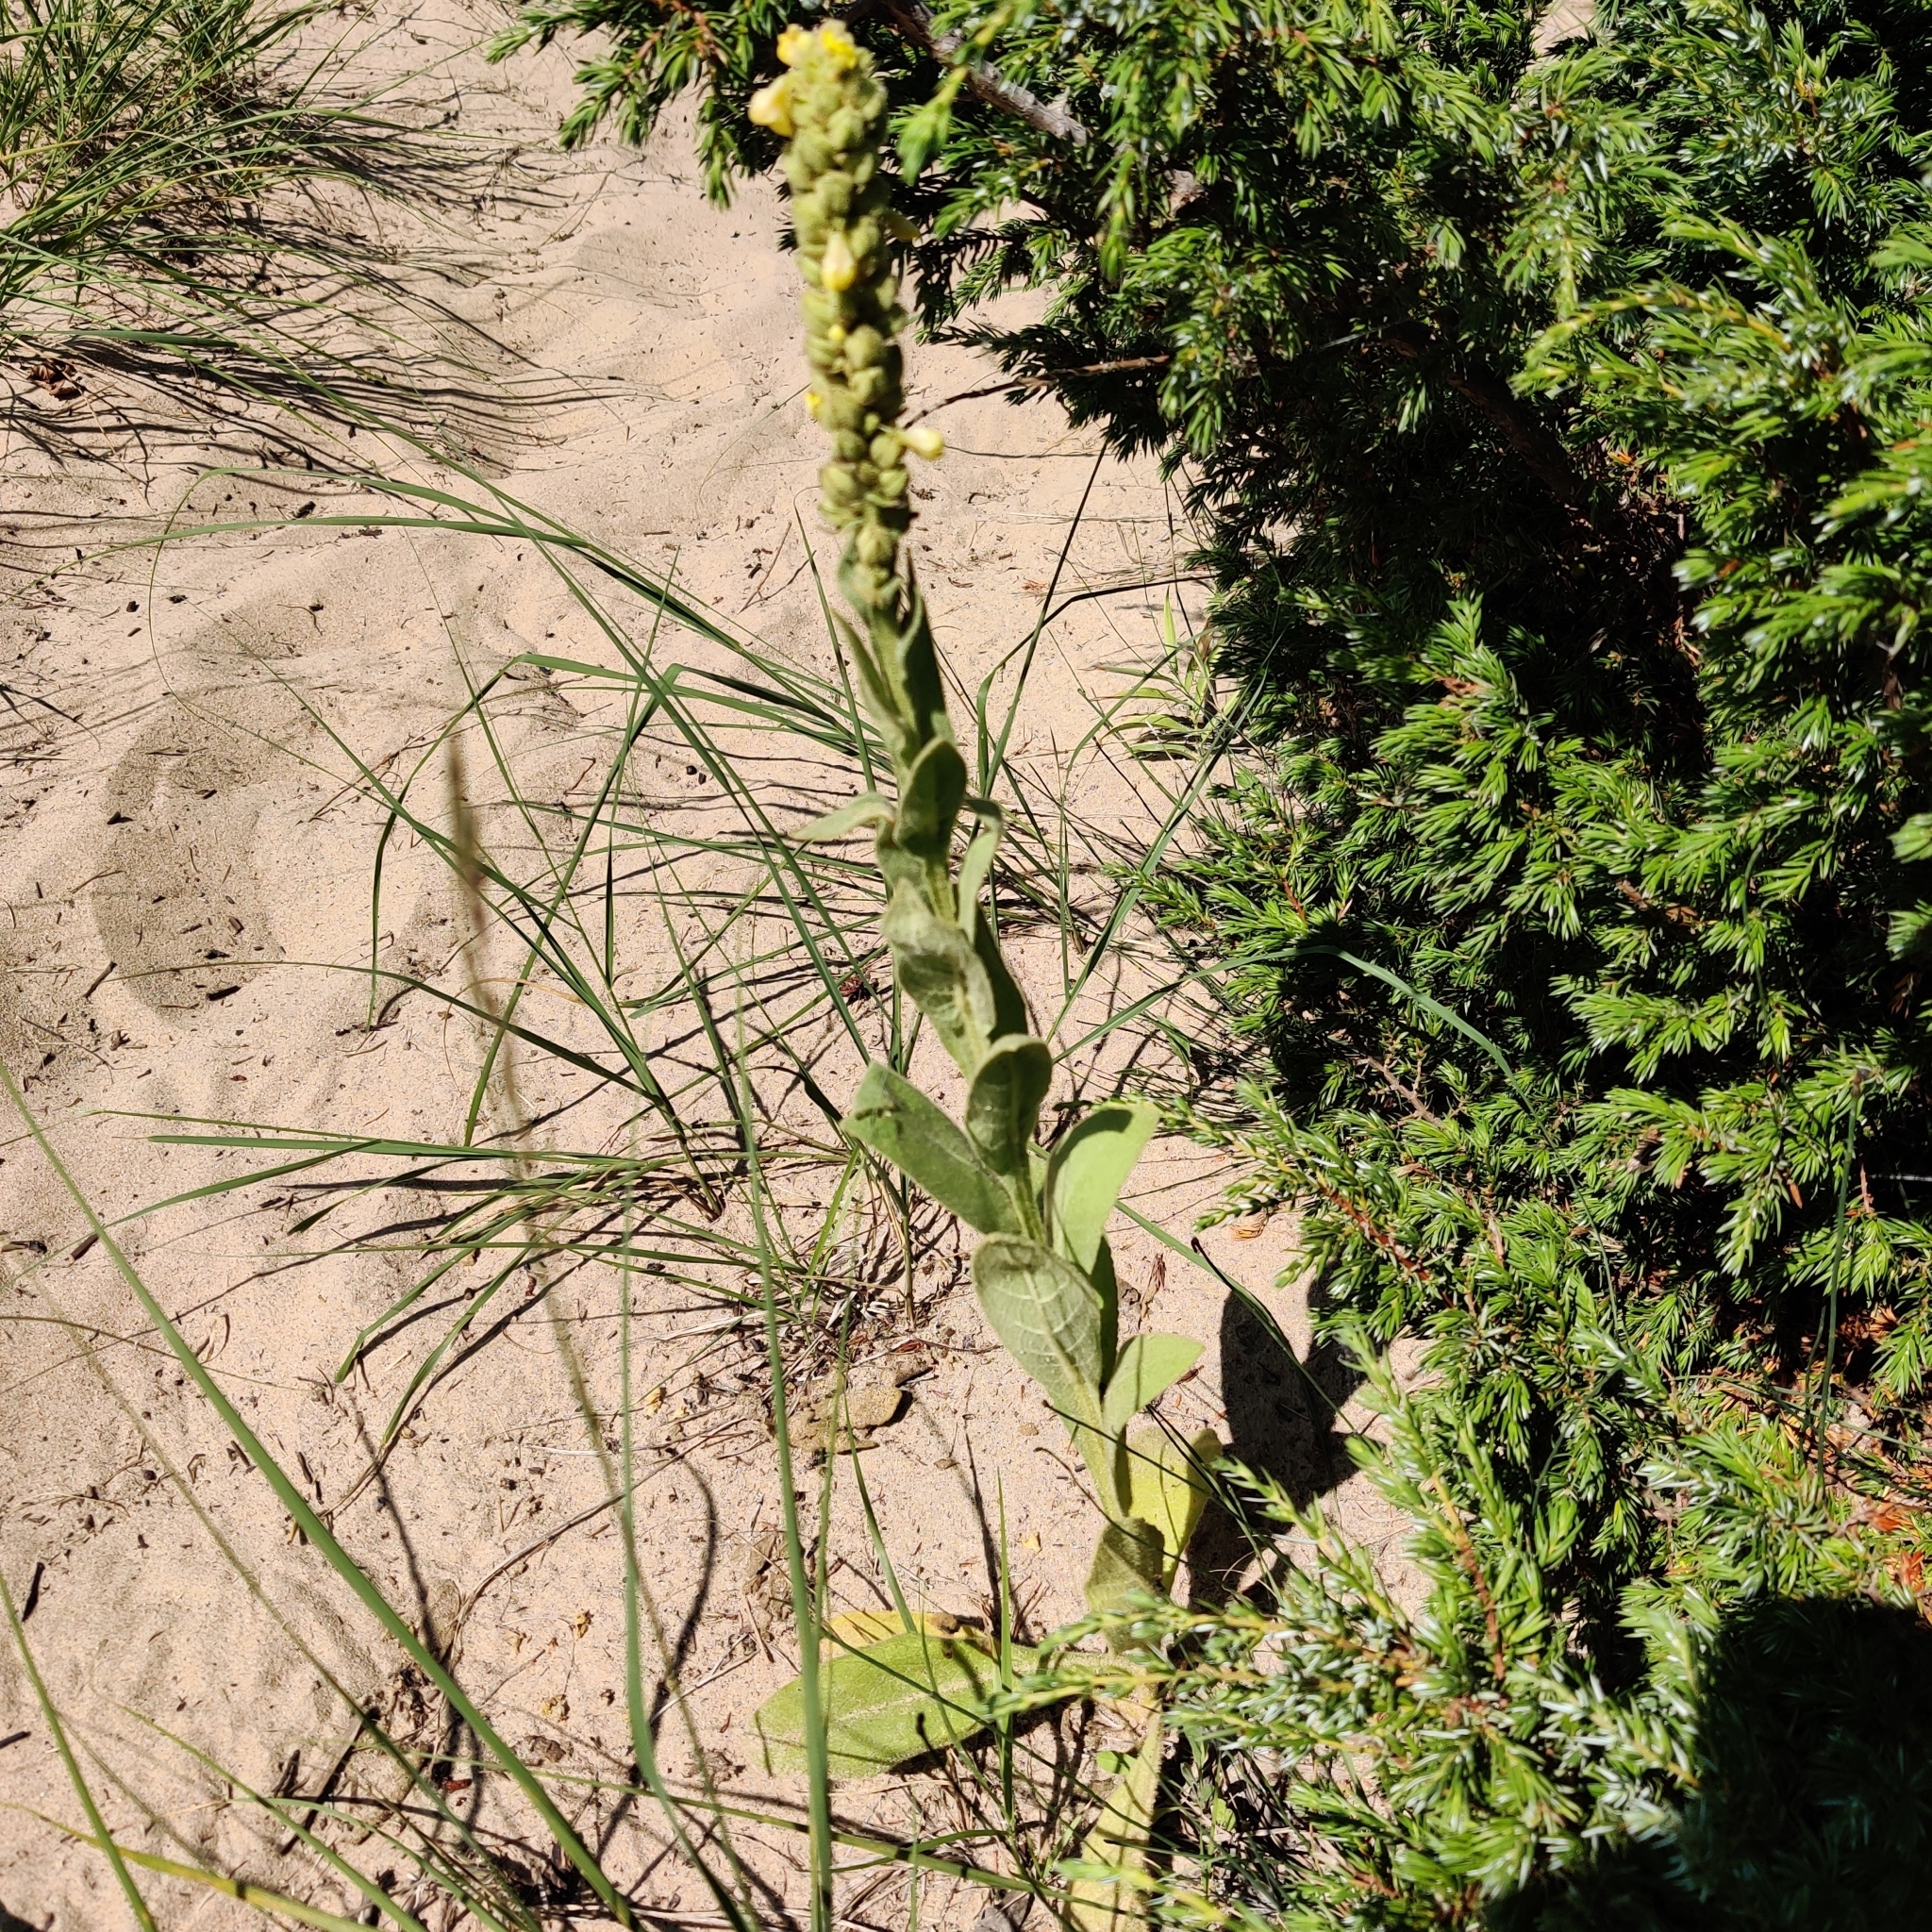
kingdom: Plantae
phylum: Tracheophyta
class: Magnoliopsida
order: Lamiales
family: Scrophulariaceae
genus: Verbascum
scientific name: Verbascum thapsus
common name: Common mullein
